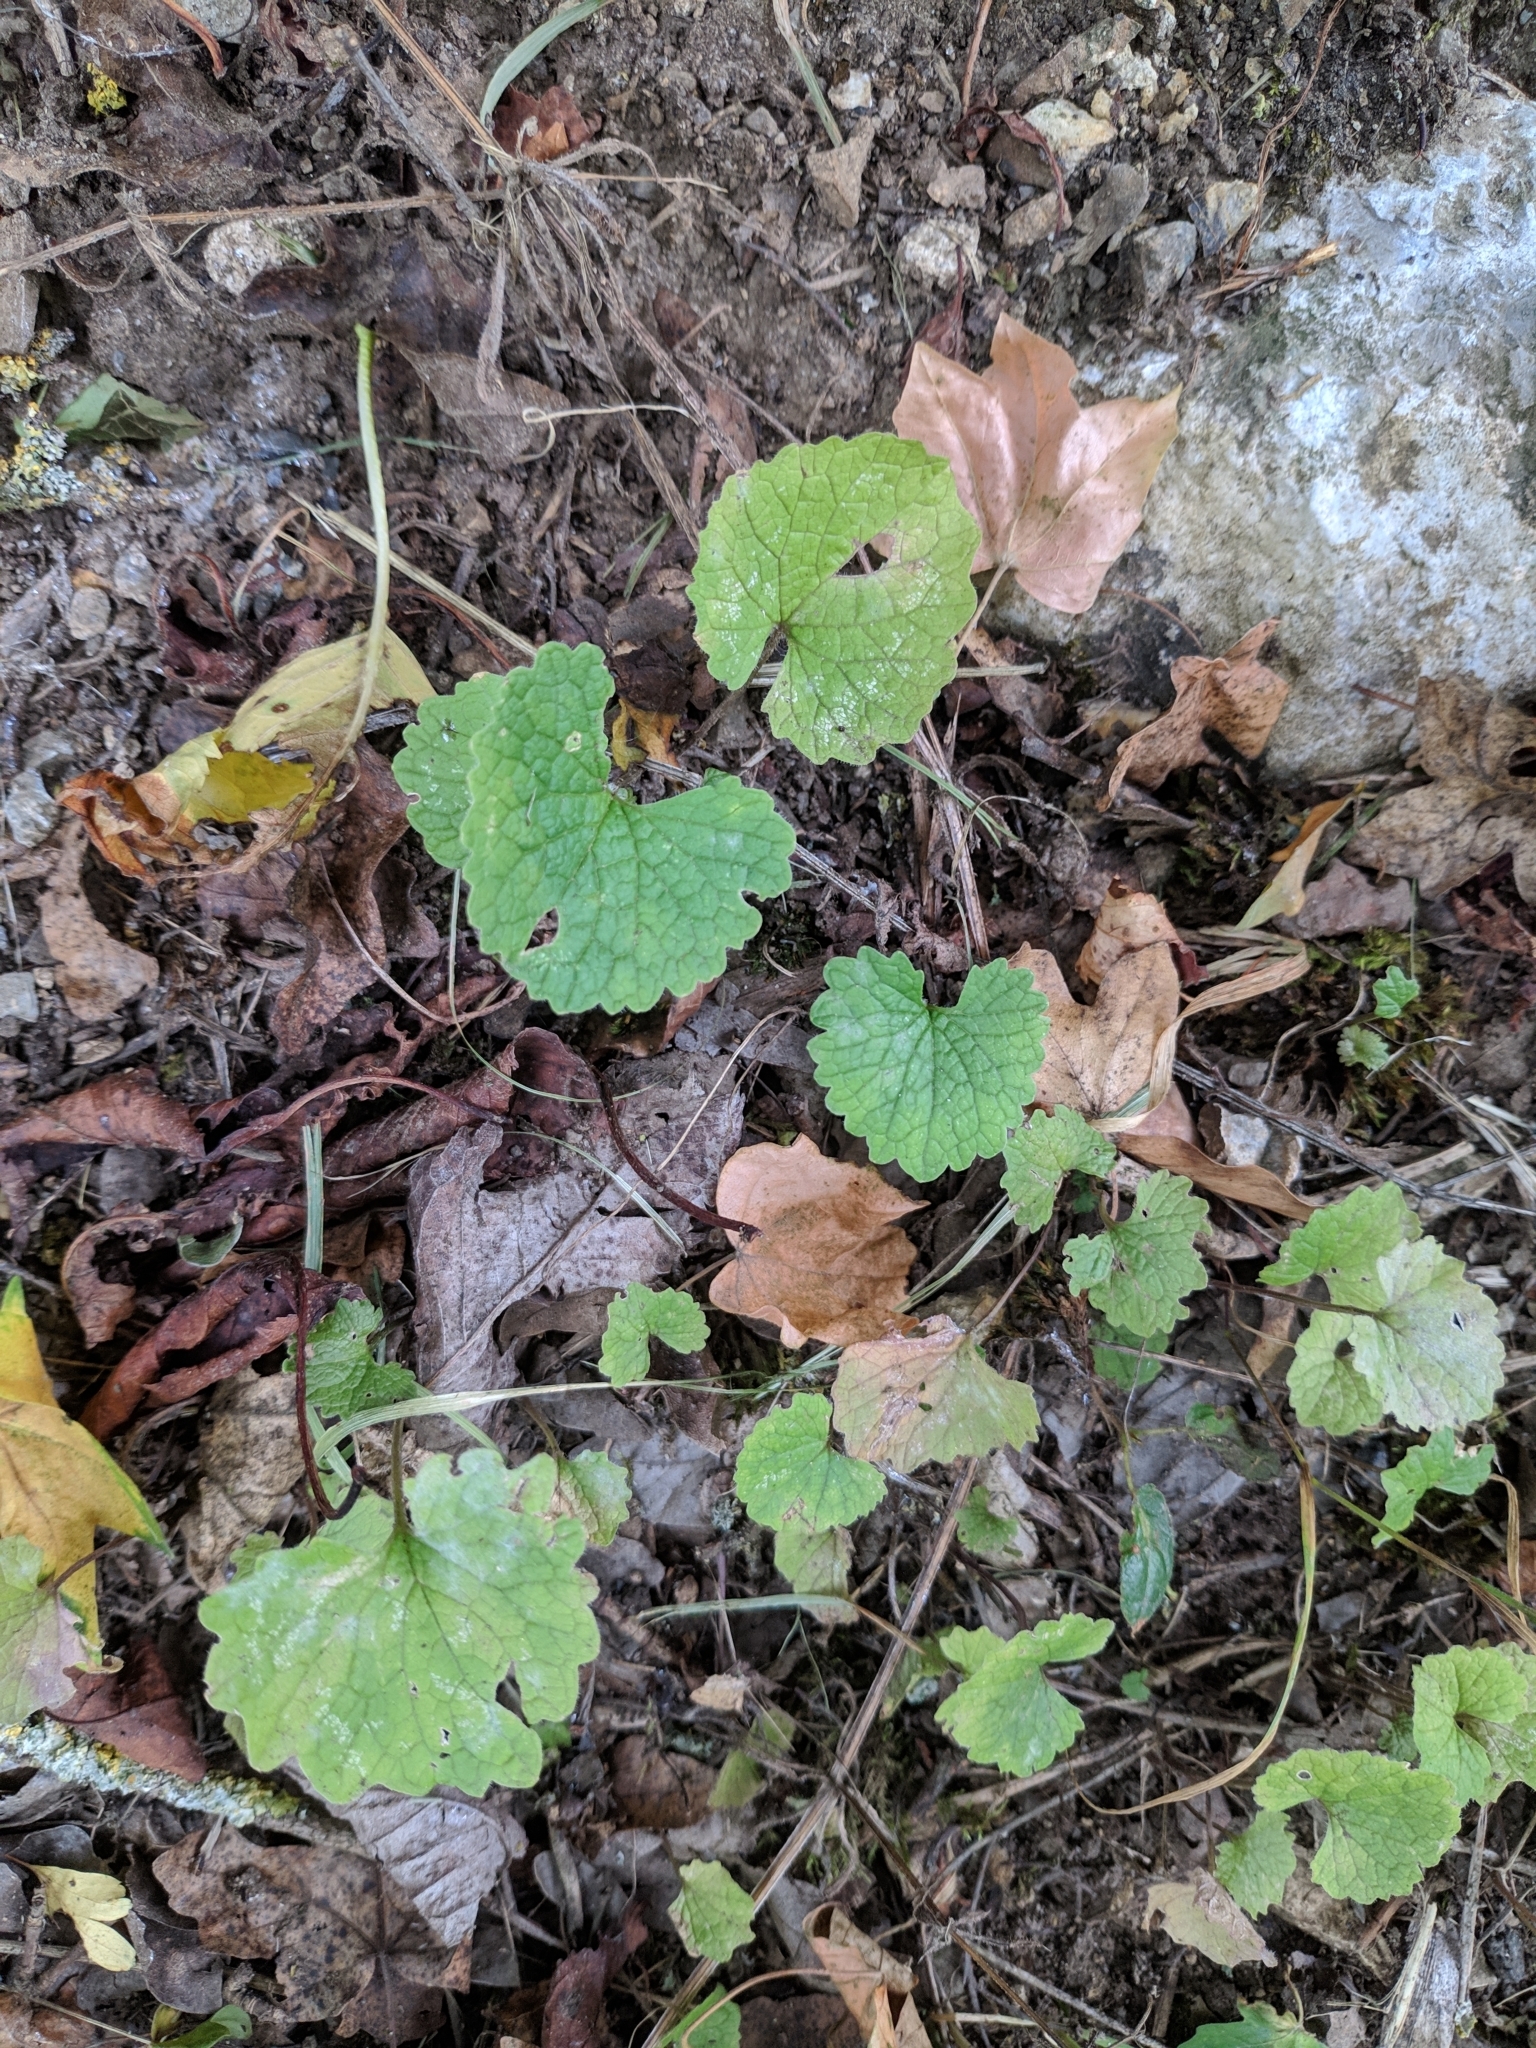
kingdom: Plantae
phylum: Tracheophyta
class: Magnoliopsida
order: Ranunculales
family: Ranunculaceae
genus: Ficaria
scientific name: Ficaria verna
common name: Lesser celandine
